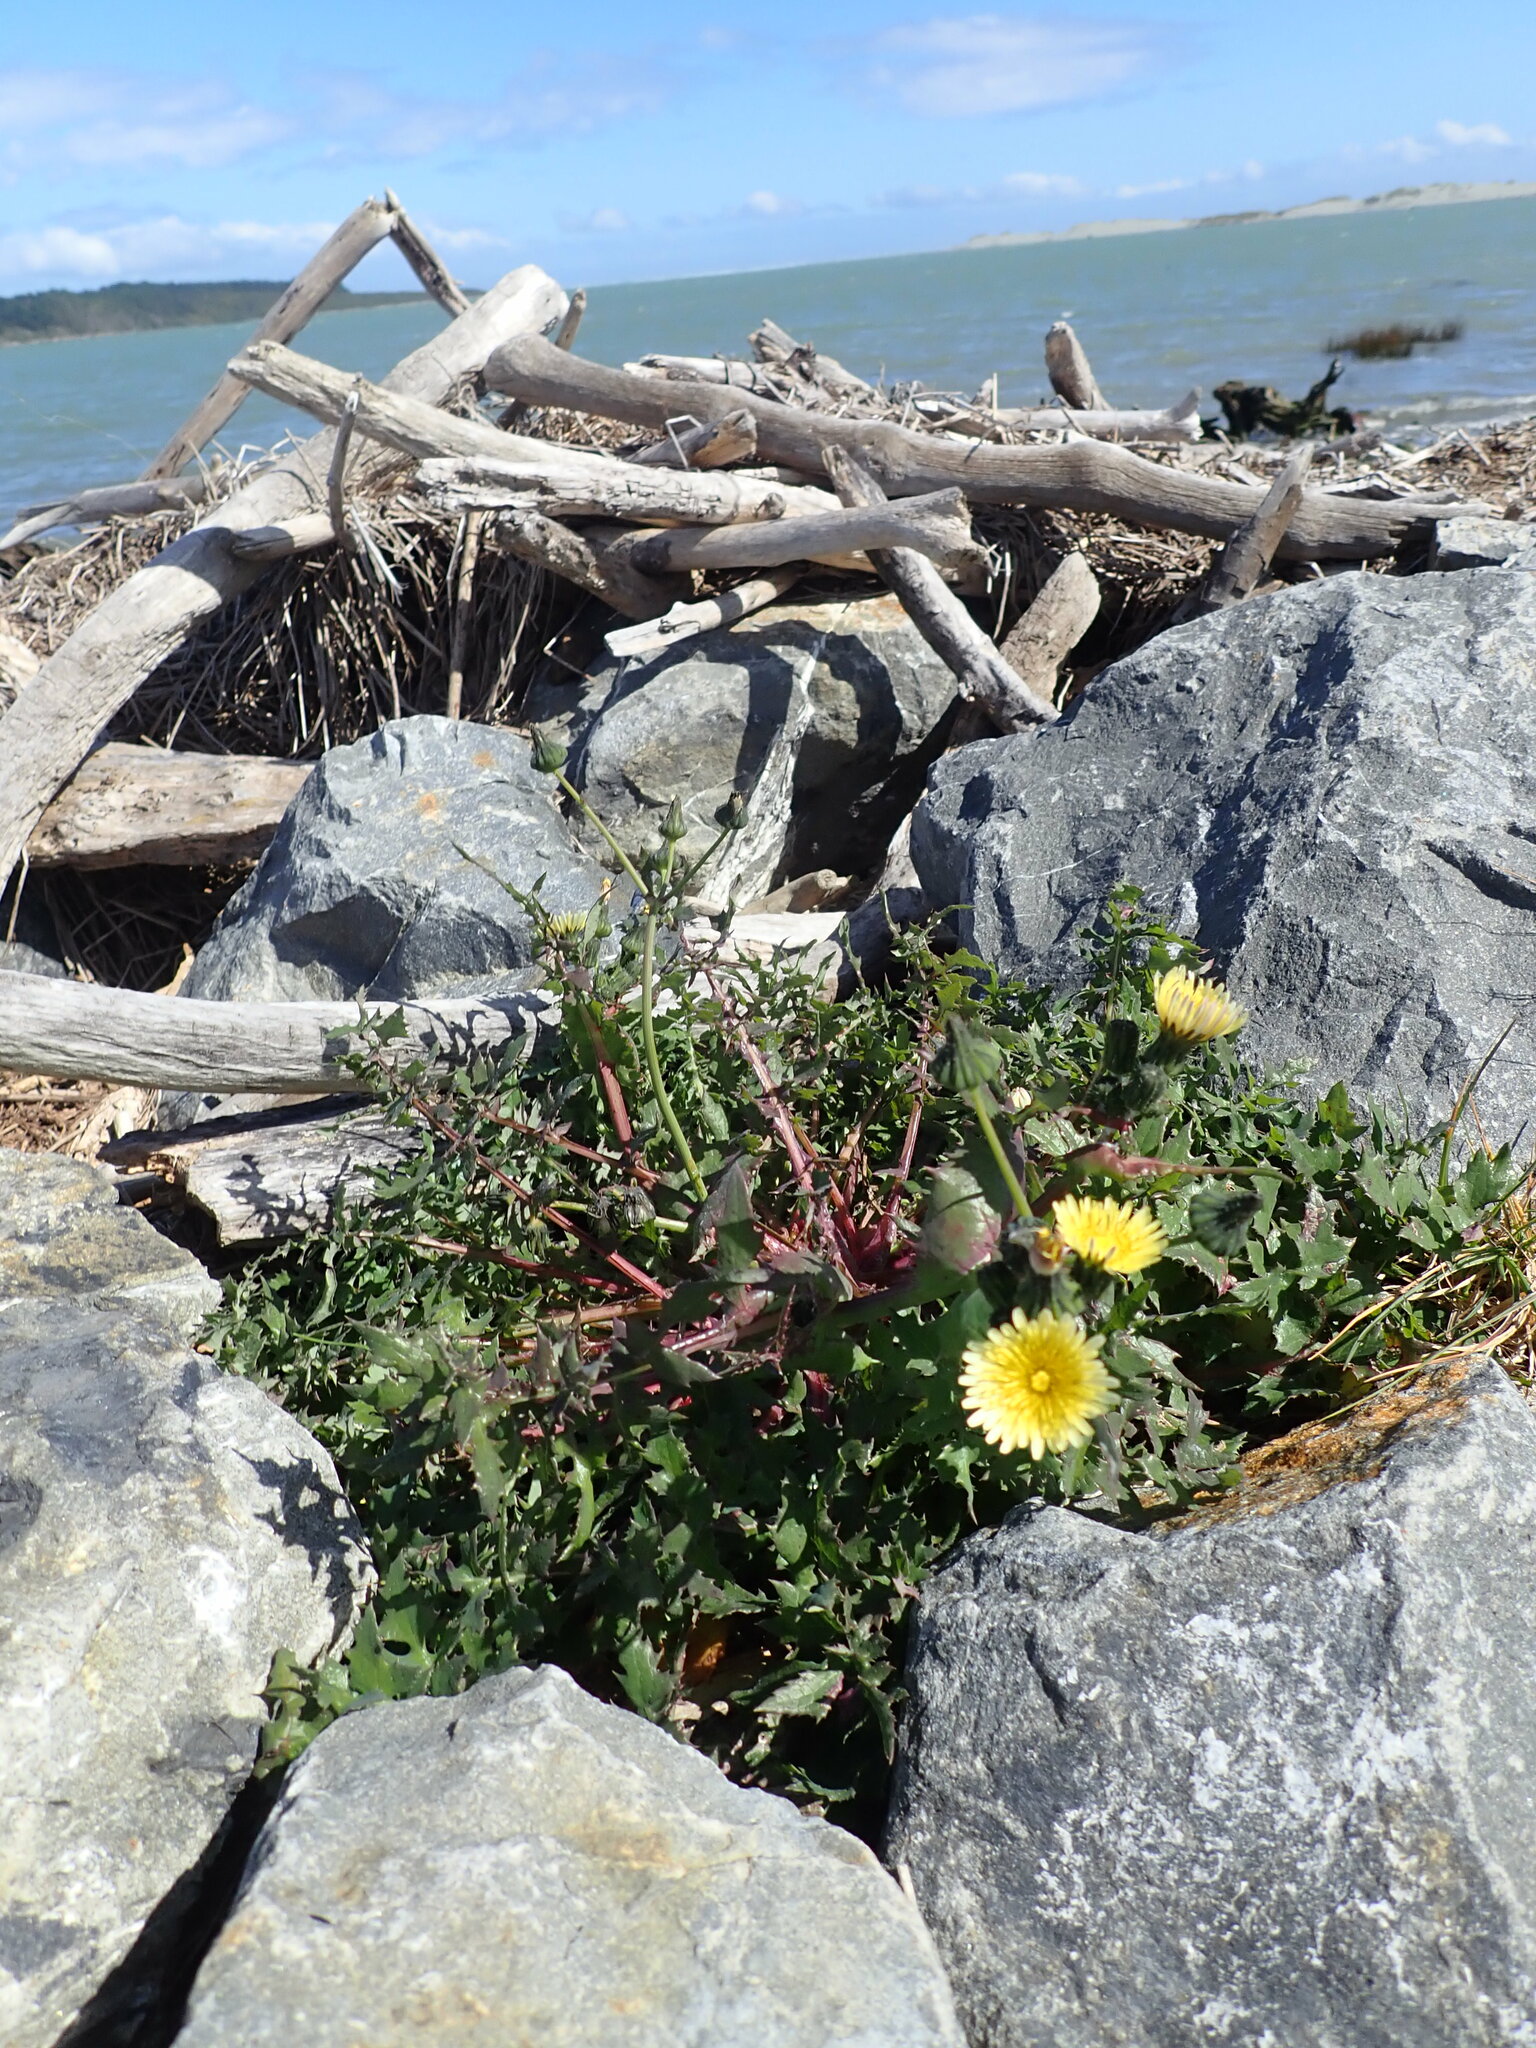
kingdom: Plantae
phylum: Tracheophyta
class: Magnoliopsida
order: Asterales
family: Asteraceae
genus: Sonchus
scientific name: Sonchus oleraceus
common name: Common sowthistle
